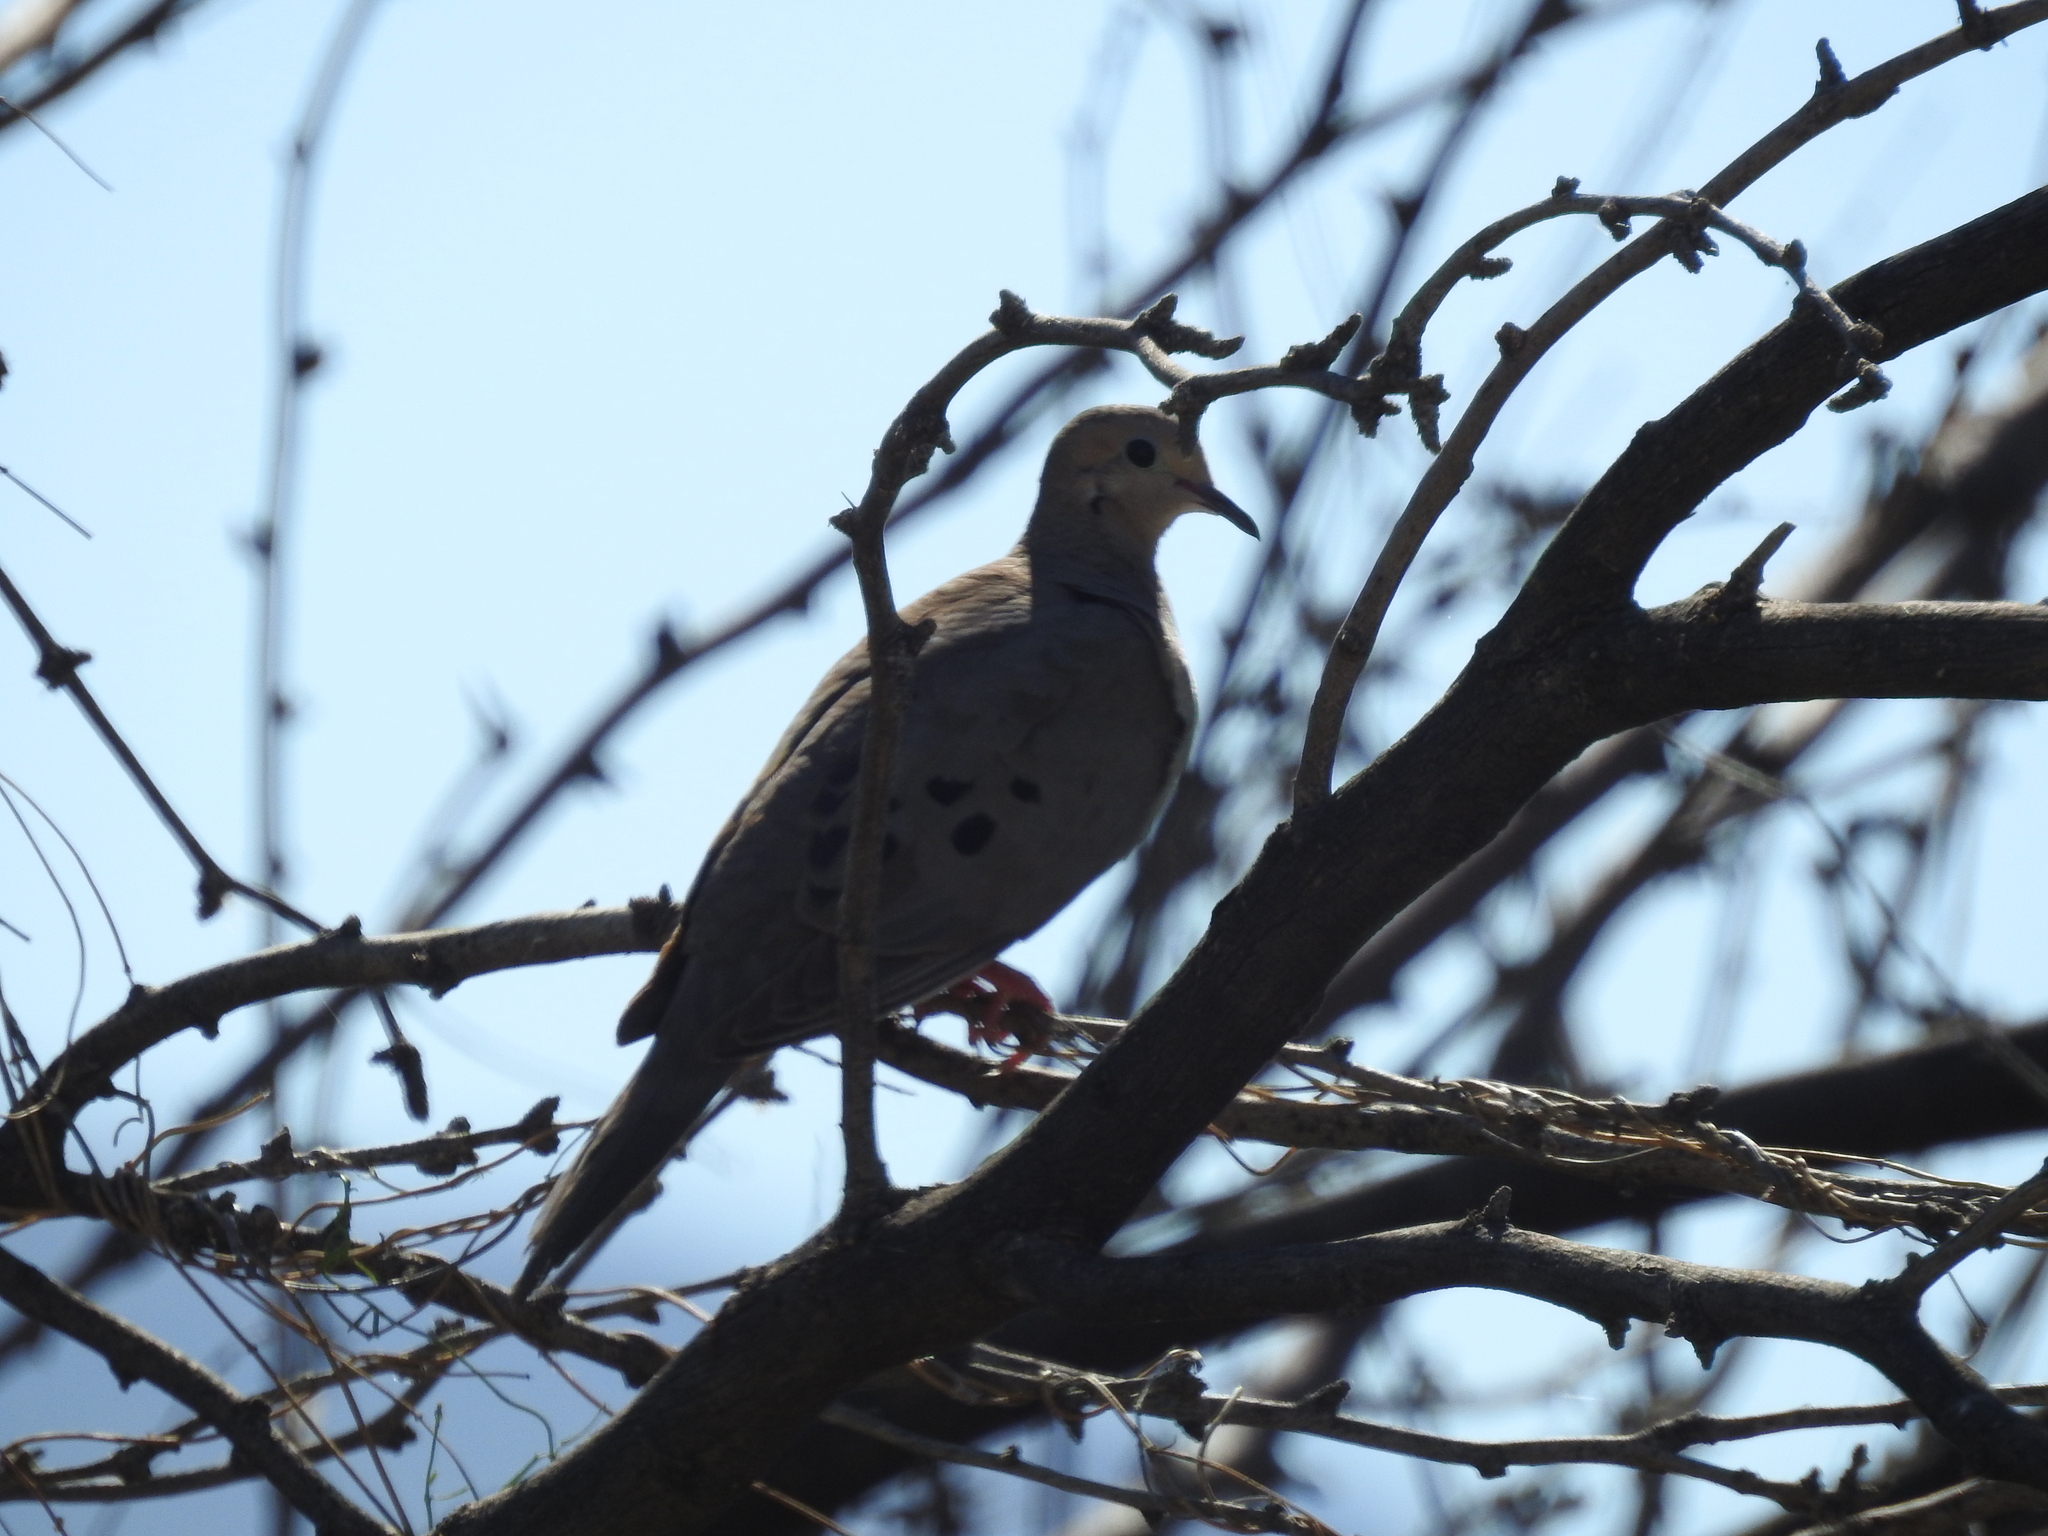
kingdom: Animalia
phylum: Chordata
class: Aves
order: Columbiformes
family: Columbidae
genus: Zenaida
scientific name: Zenaida macroura
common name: Mourning dove
